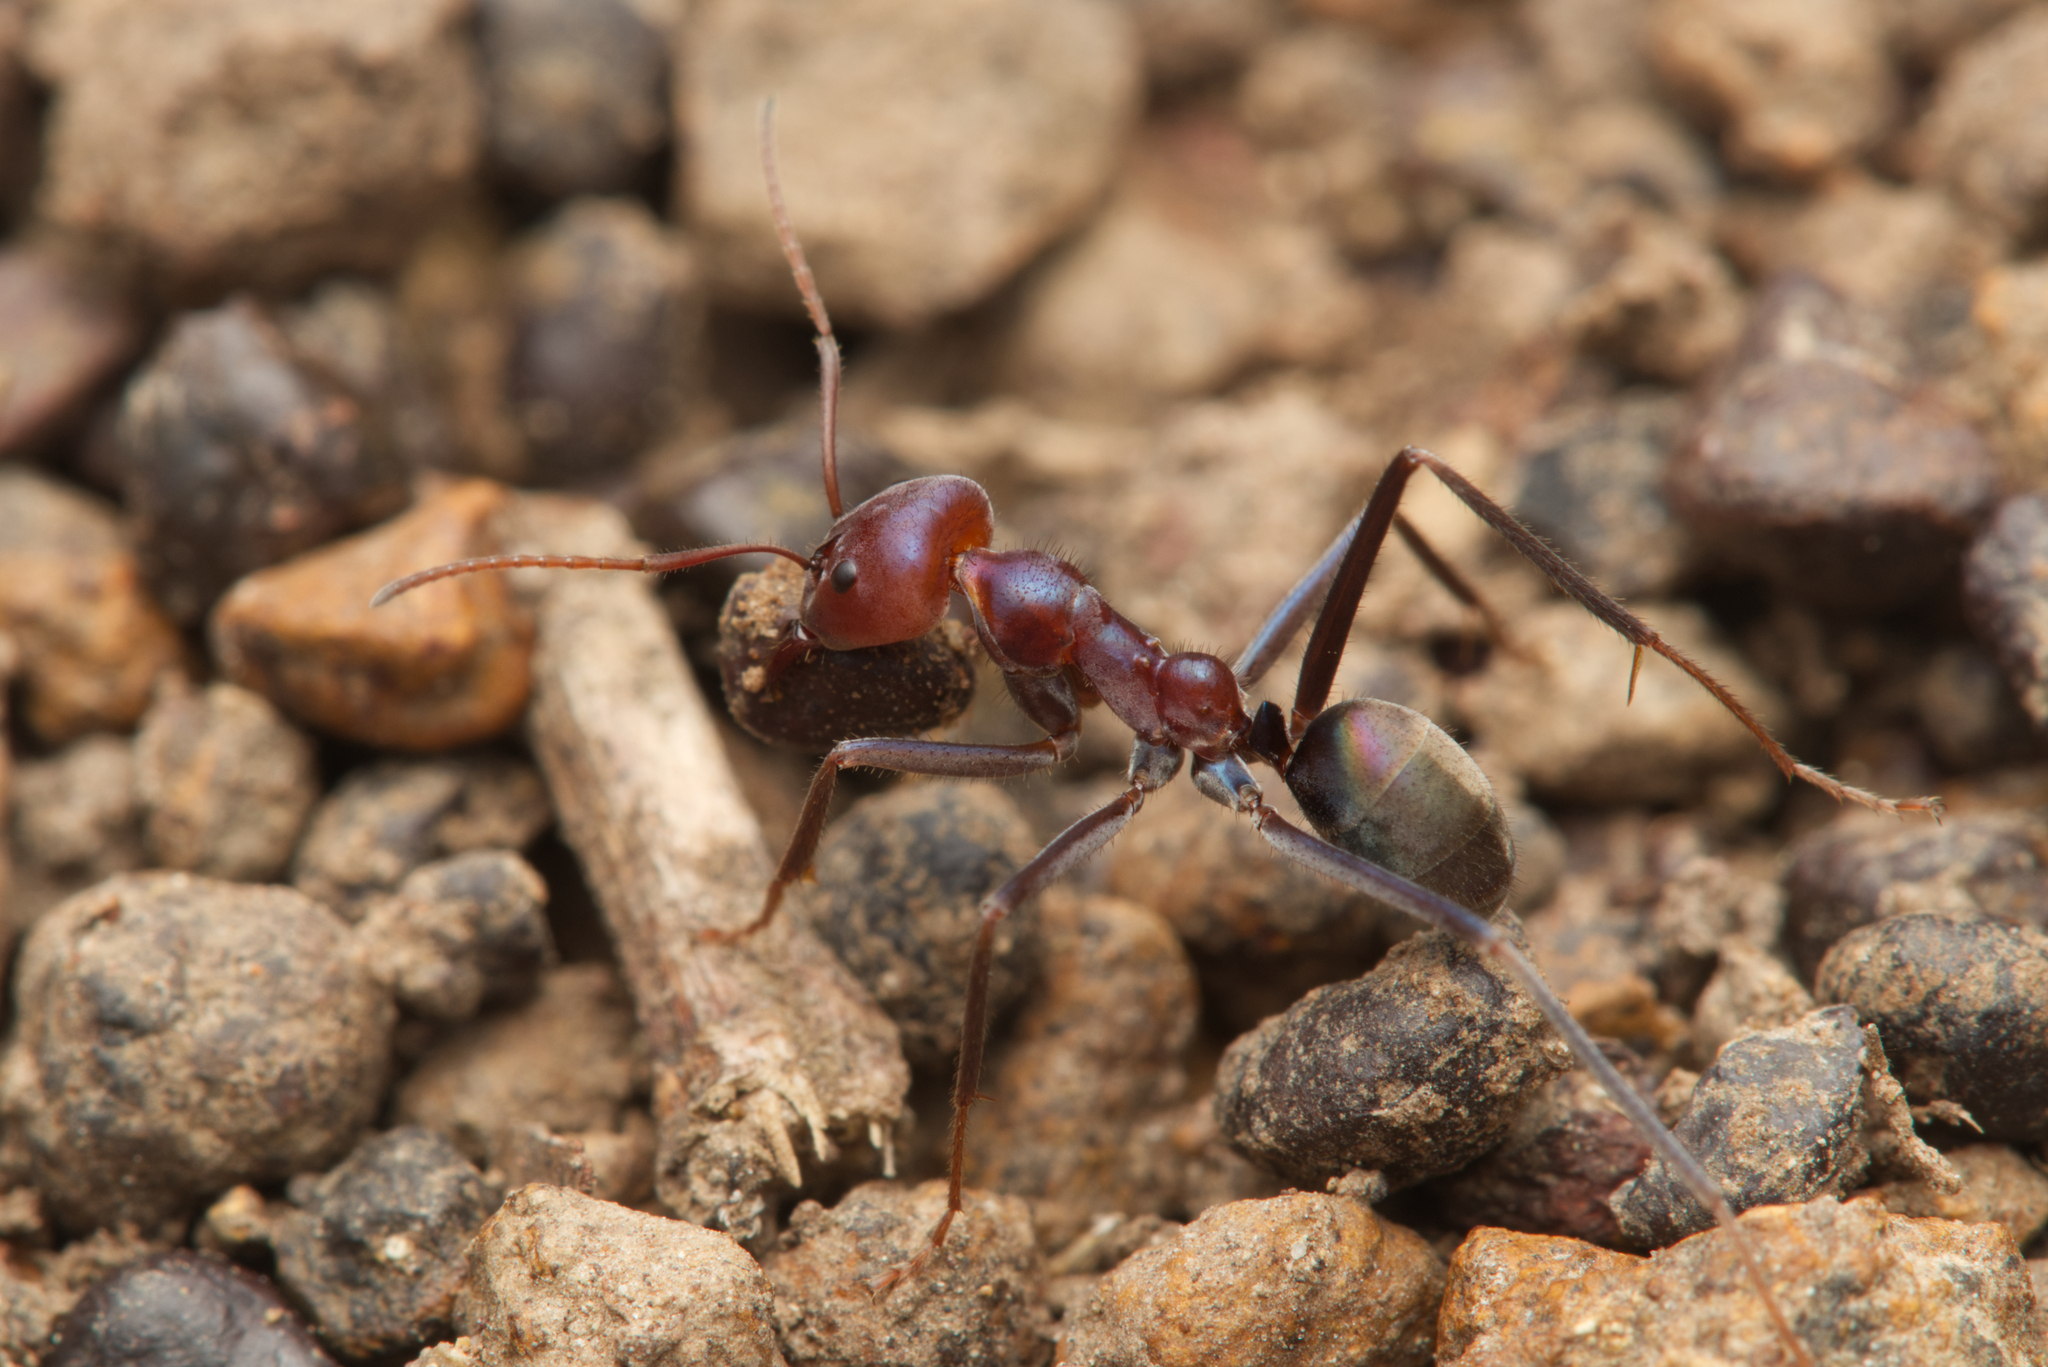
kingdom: Animalia
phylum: Arthropoda
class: Insecta
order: Hymenoptera
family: Formicidae
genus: Iridomyrmex
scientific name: Iridomyrmex purpureus
